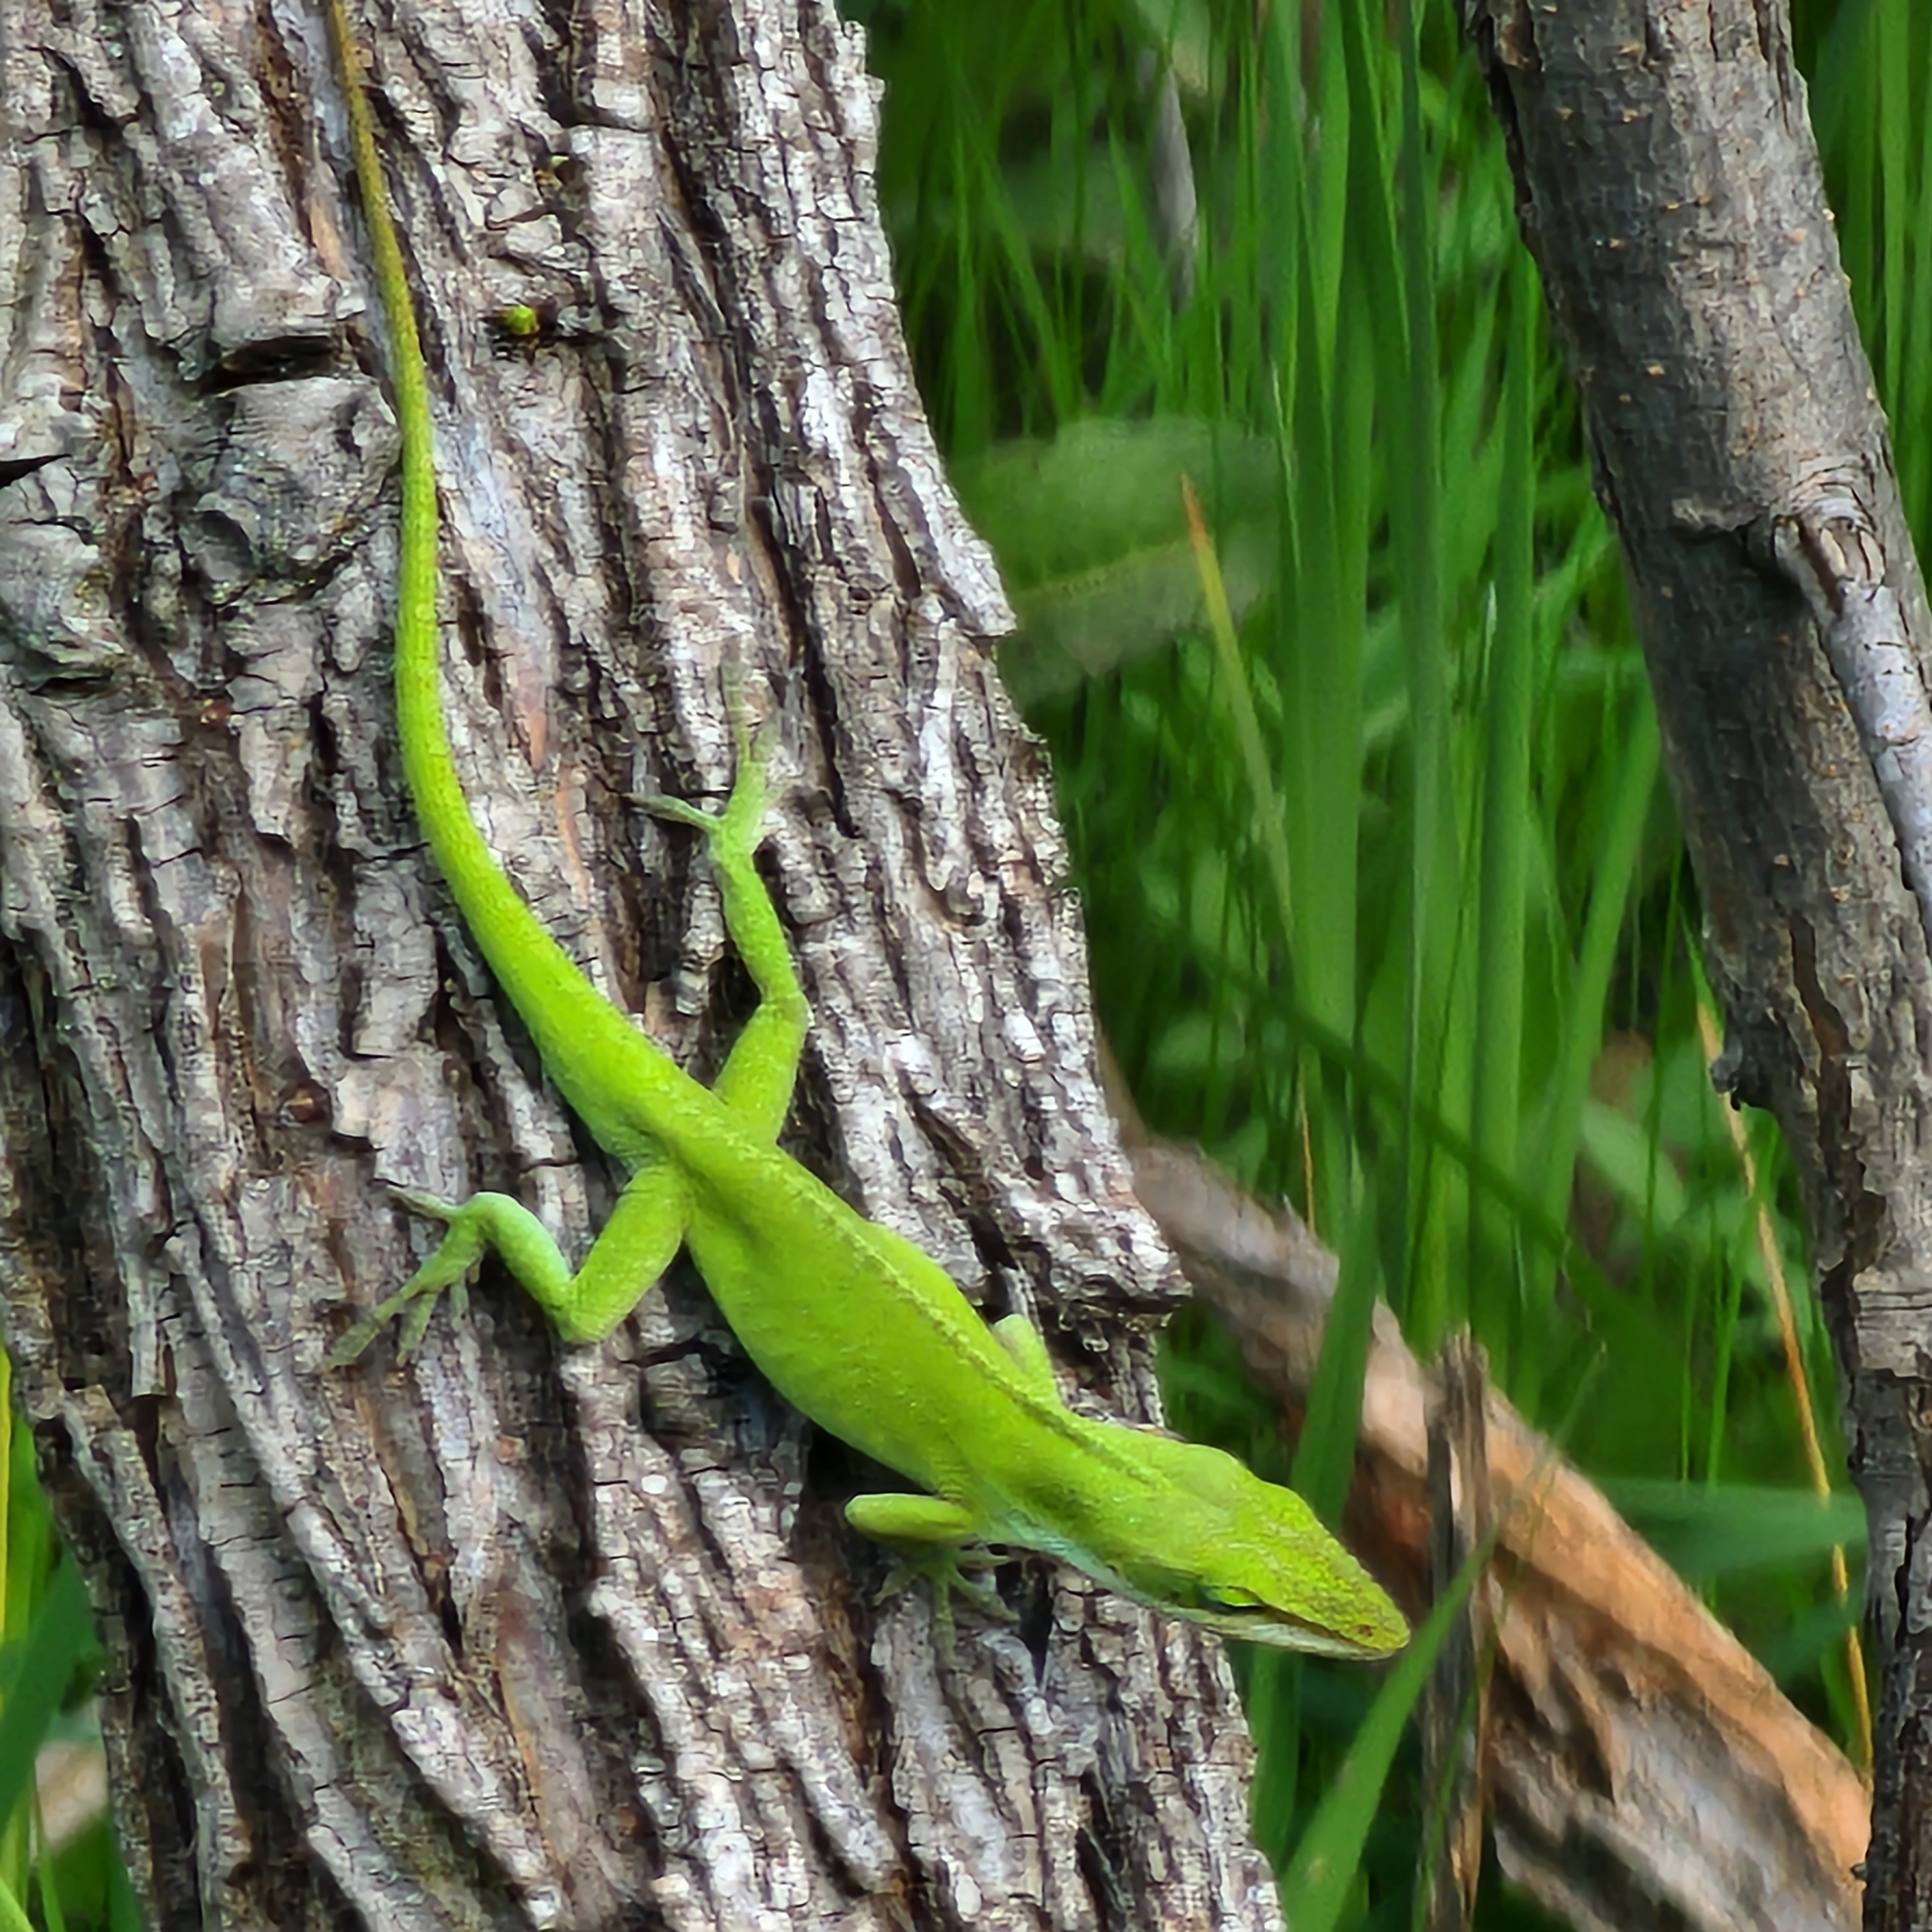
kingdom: Animalia
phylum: Chordata
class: Squamata
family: Dactyloidae
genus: Anolis
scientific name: Anolis carolinensis
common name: Green anole
